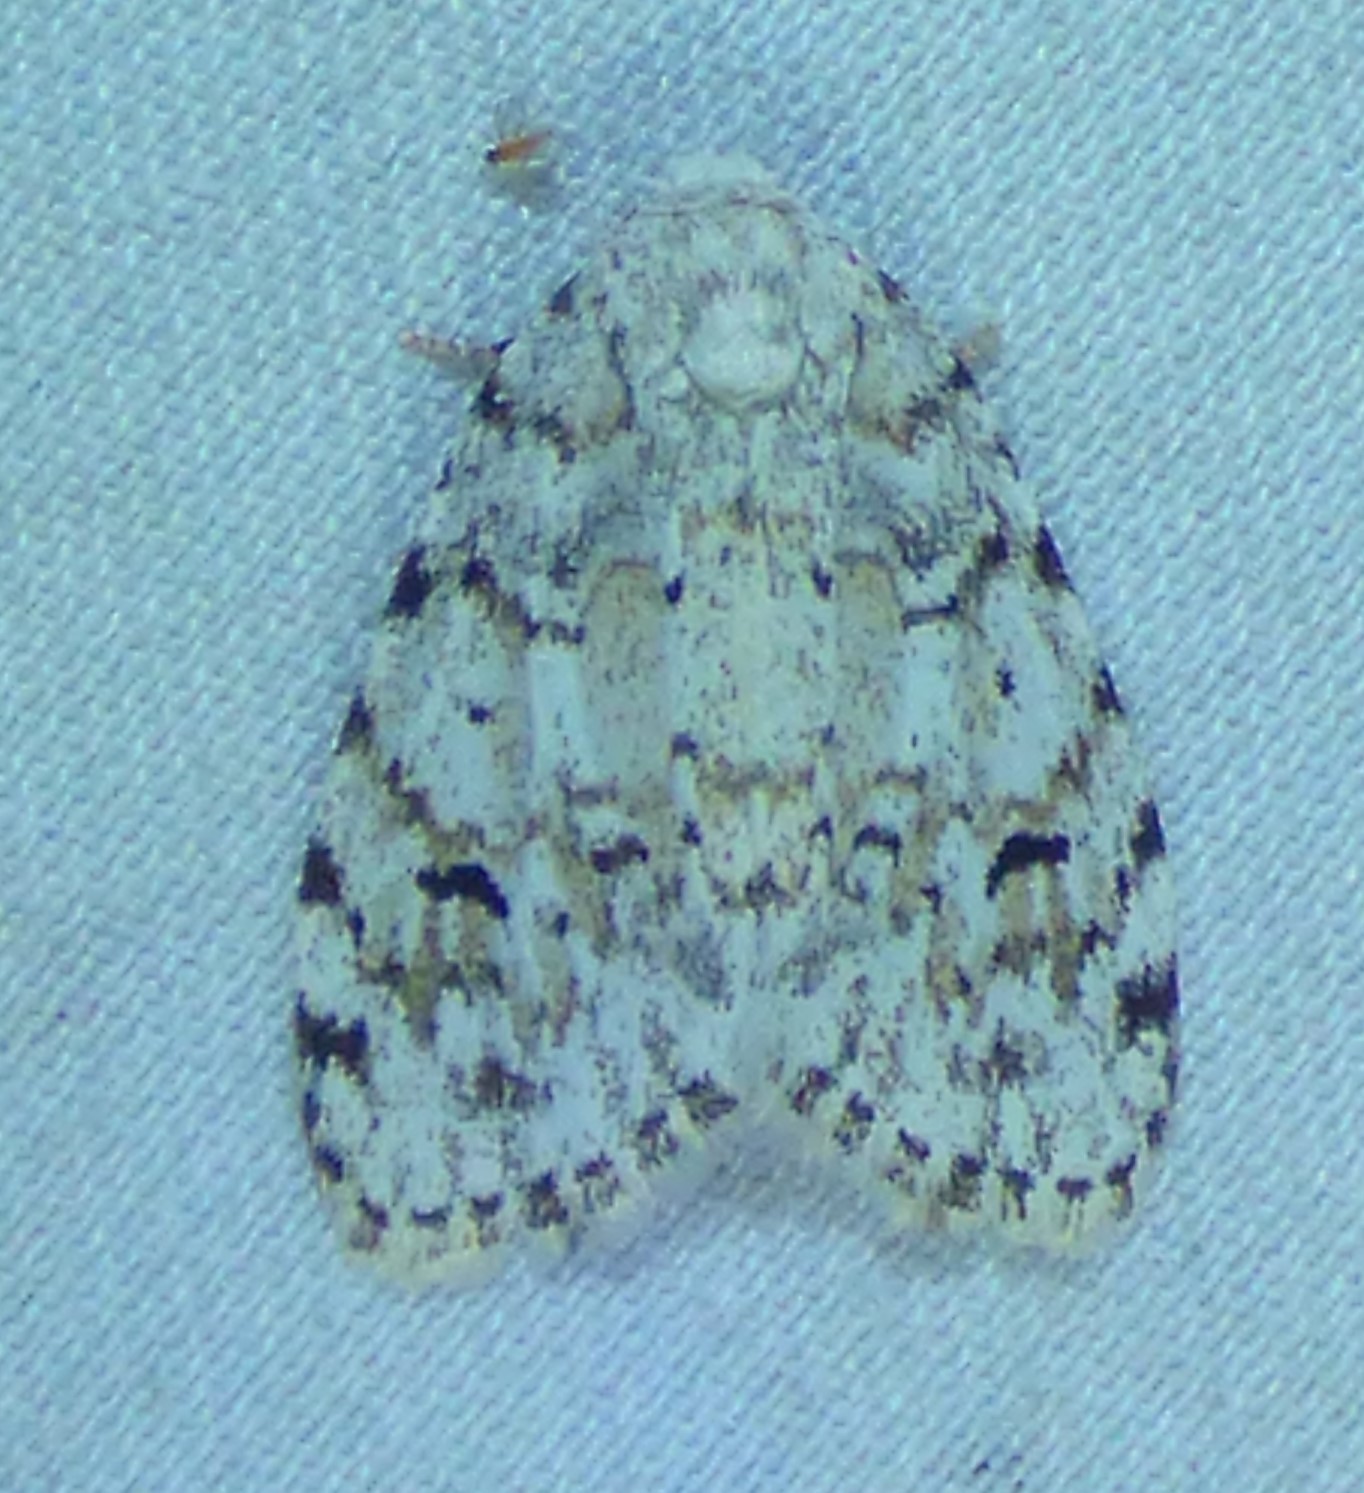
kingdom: Animalia
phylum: Arthropoda
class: Insecta
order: Lepidoptera
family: Erebidae
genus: Clemensia
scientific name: Clemensia albata
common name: Little white lichen moth
